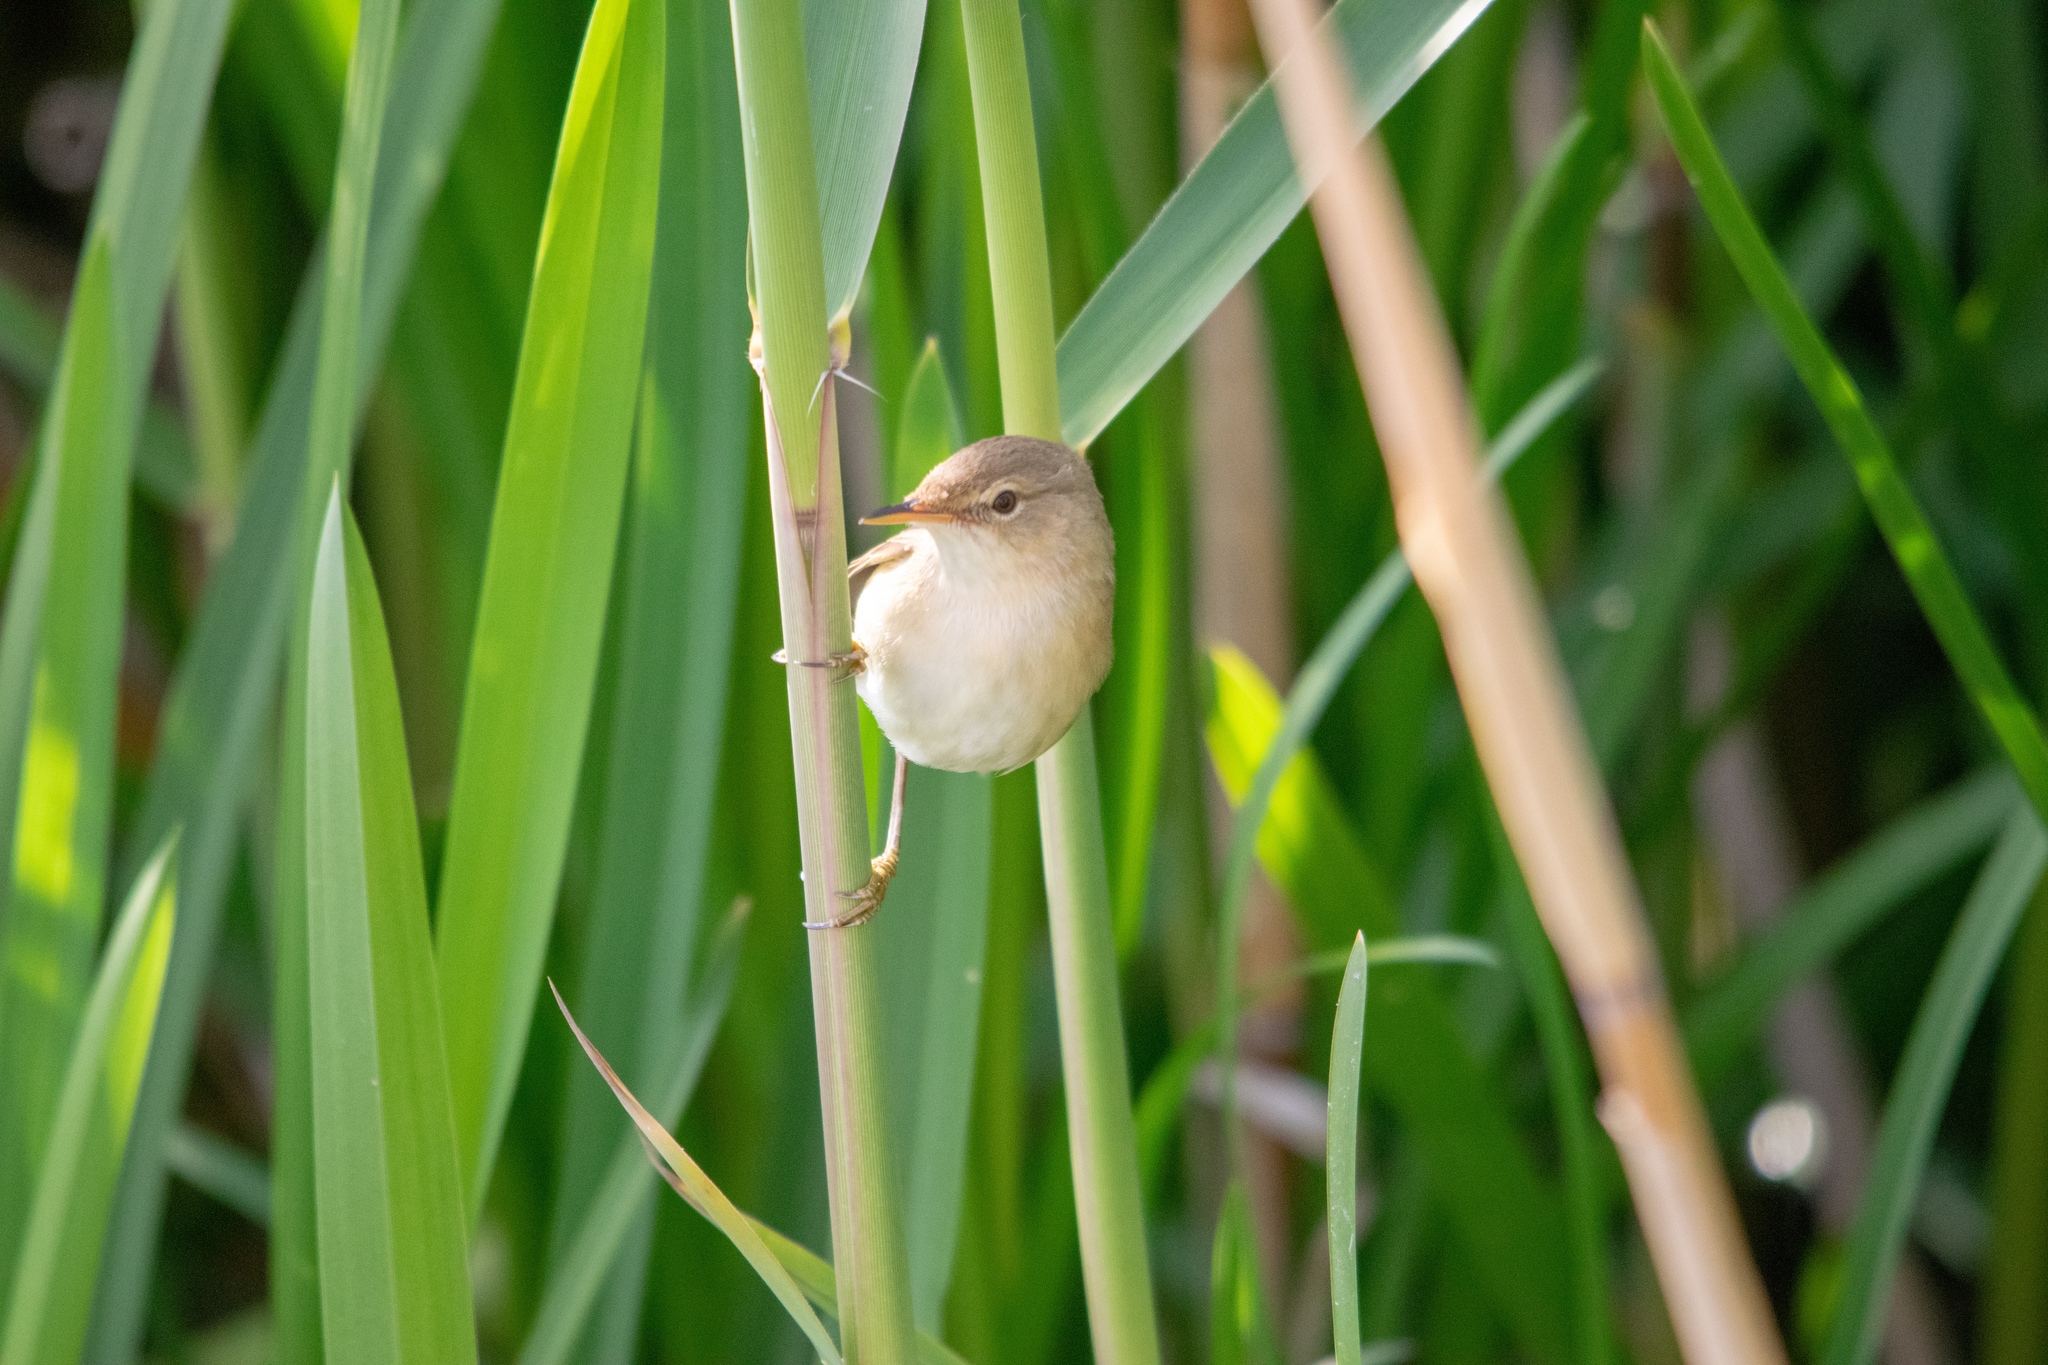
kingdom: Animalia
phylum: Chordata
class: Aves
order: Passeriformes
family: Acrocephalidae
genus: Acrocephalus
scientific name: Acrocephalus scirpaceus
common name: Eurasian reed warbler
